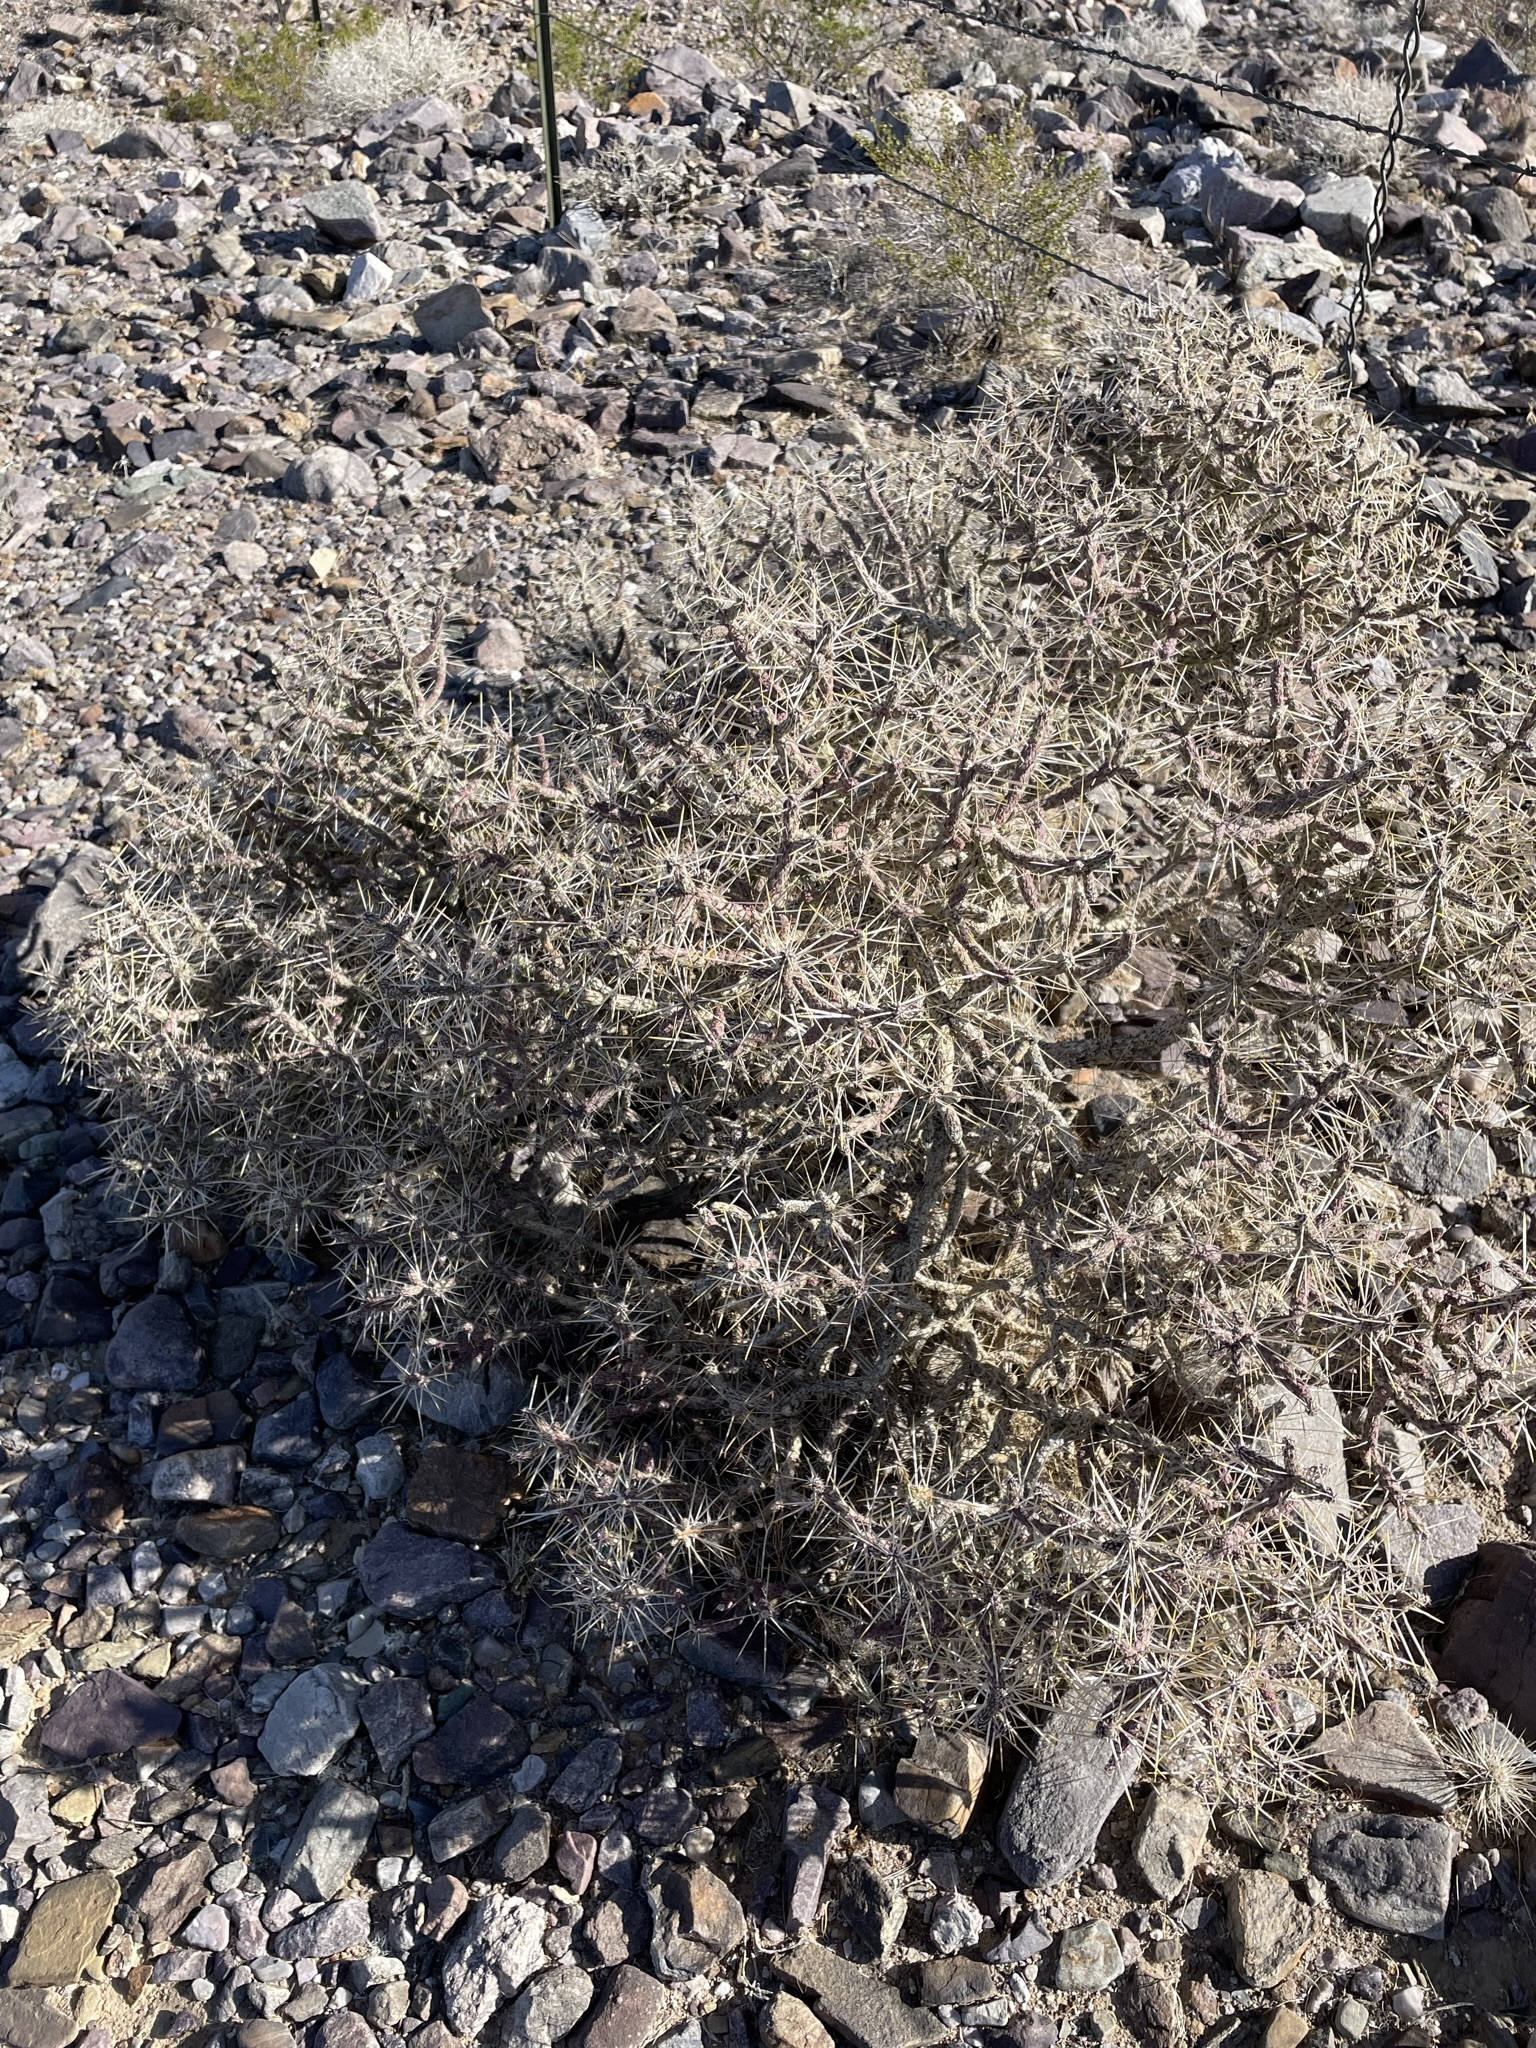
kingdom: Plantae
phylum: Tracheophyta
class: Magnoliopsida
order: Caryophyllales
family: Cactaceae
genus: Cylindropuntia
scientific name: Cylindropuntia ramosissima
